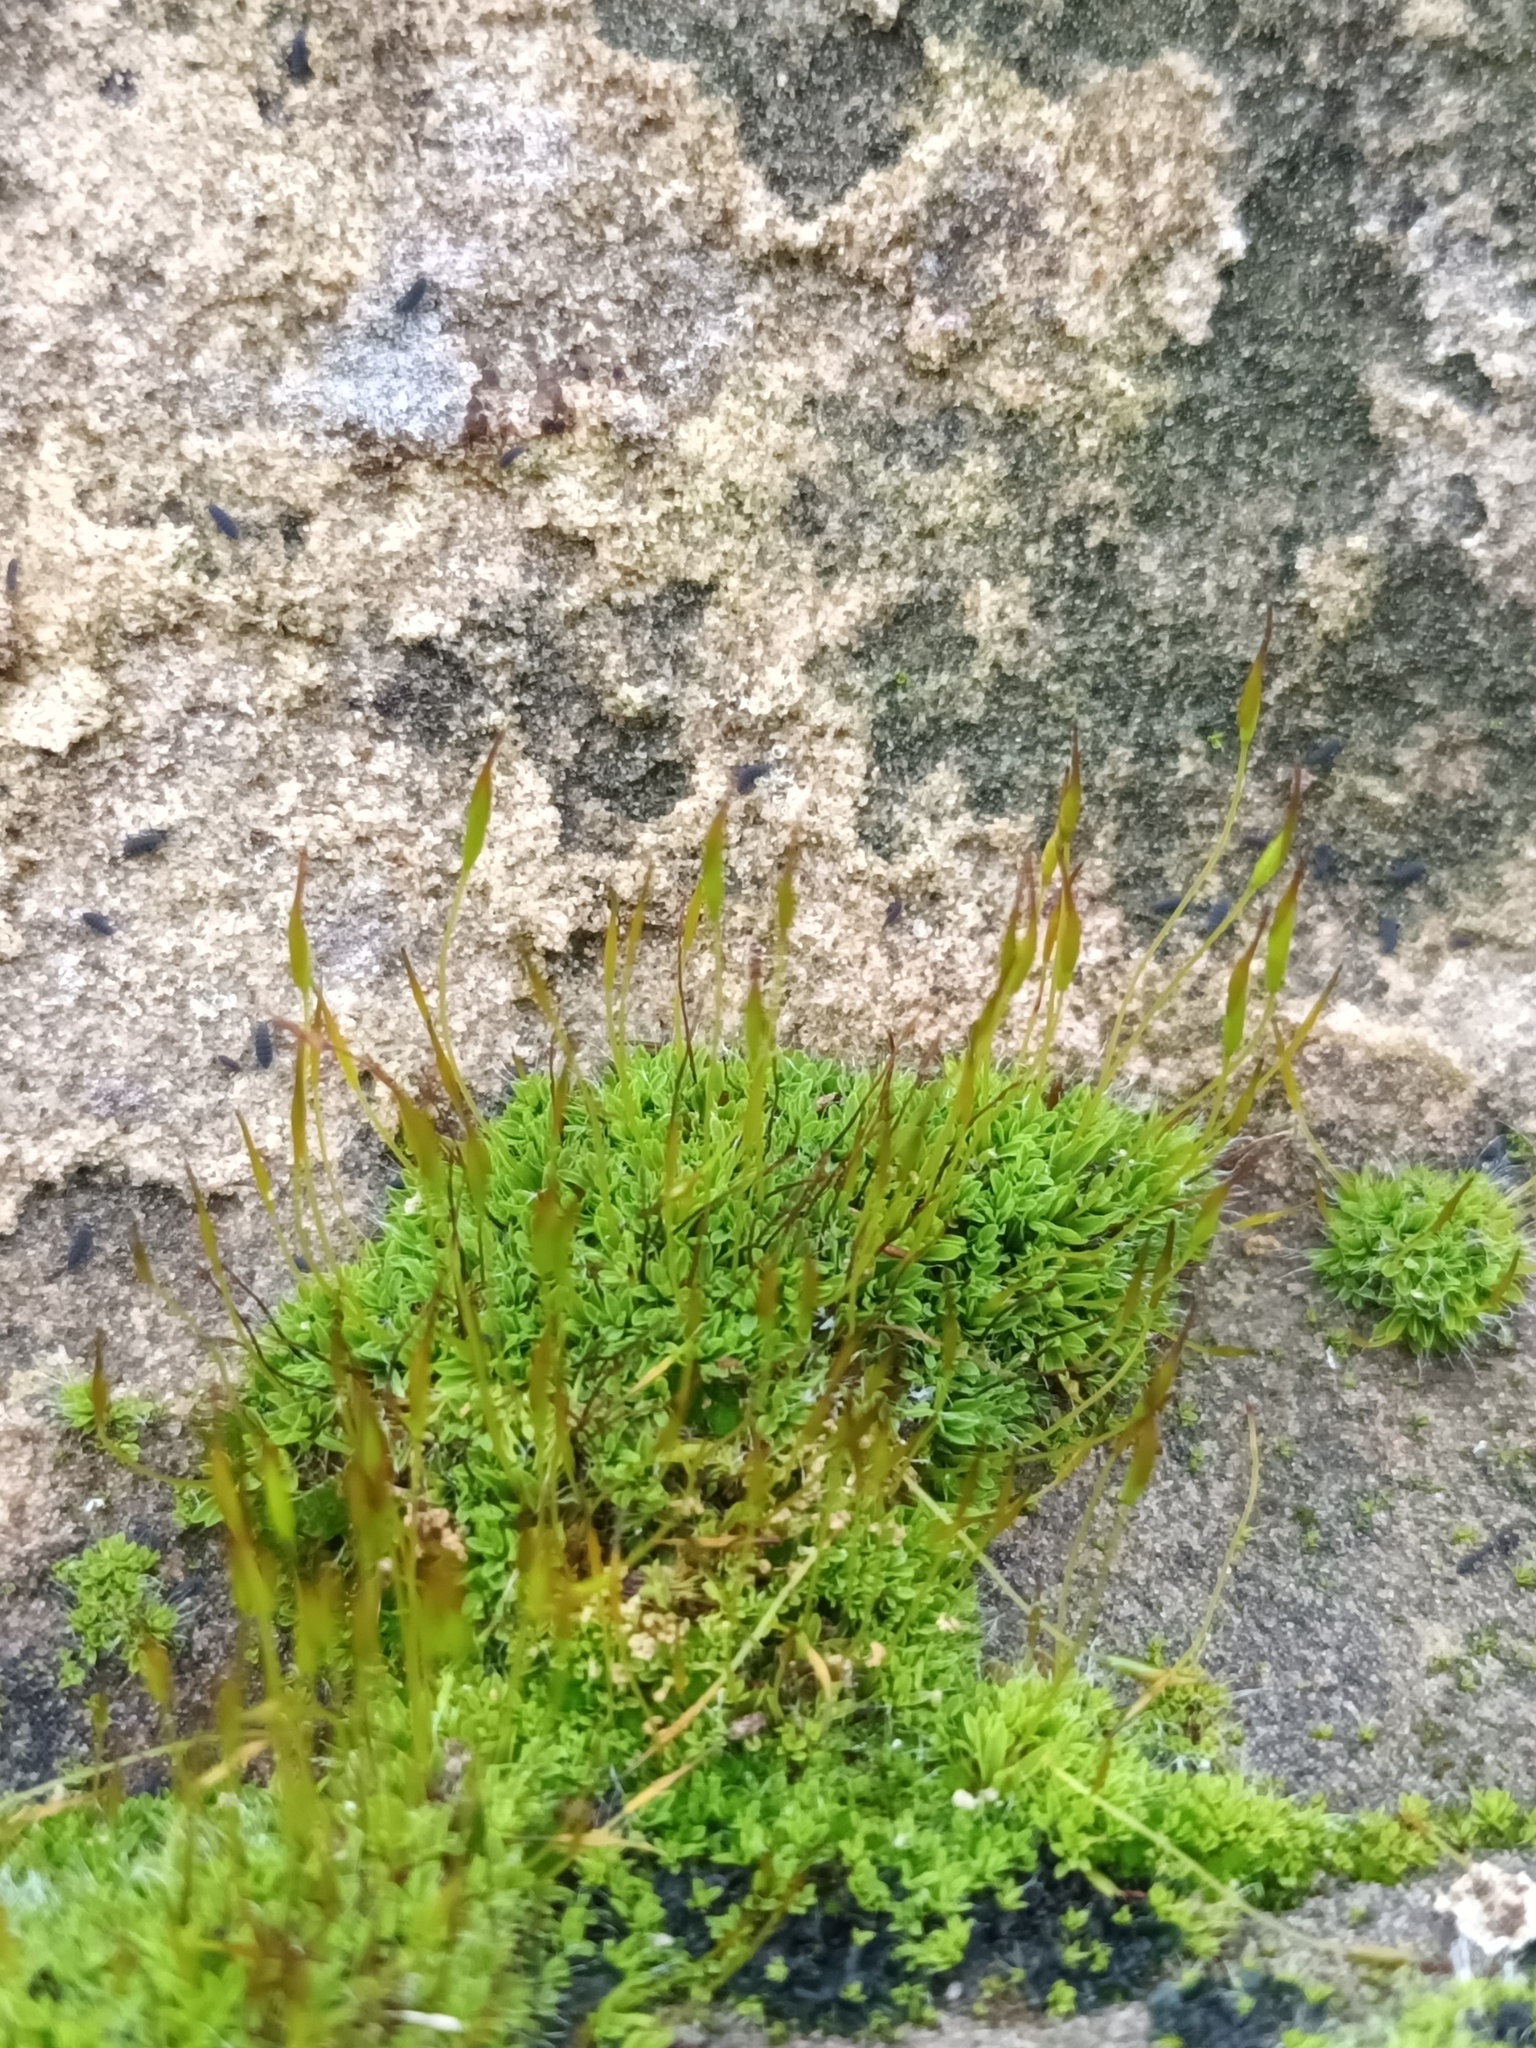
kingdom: Plantae
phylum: Bryophyta
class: Bryopsida
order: Pottiales
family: Pottiaceae
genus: Tortula
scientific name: Tortula muralis
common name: Wall screw-moss
